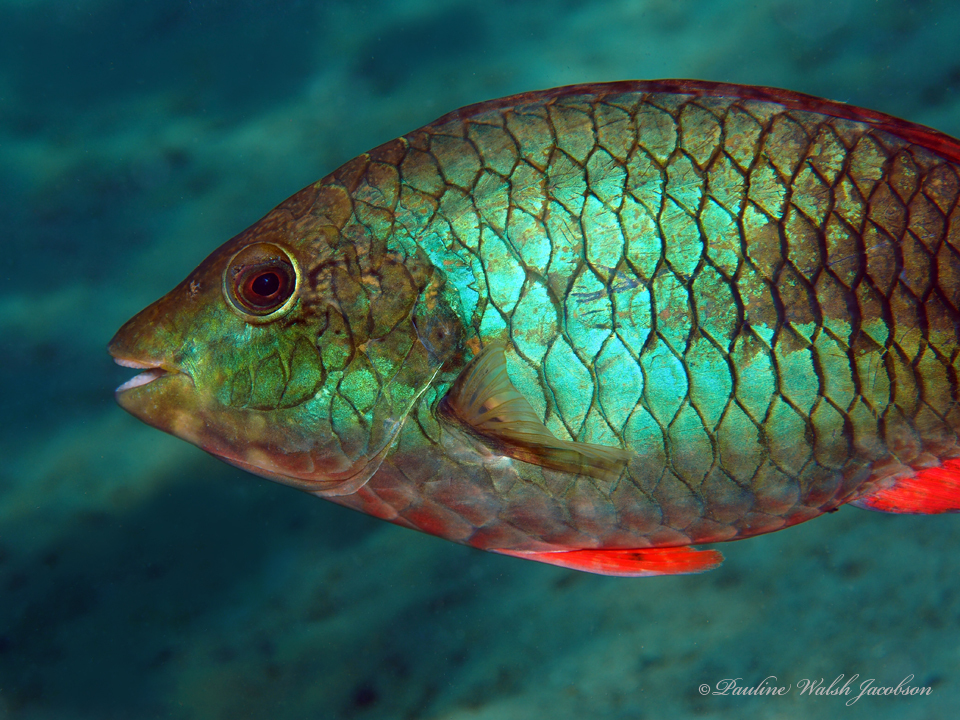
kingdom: Animalia
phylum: Chordata
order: Perciformes
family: Scaridae
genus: Sparisoma
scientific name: Sparisoma aurofrenatum
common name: Redband parrotfish
